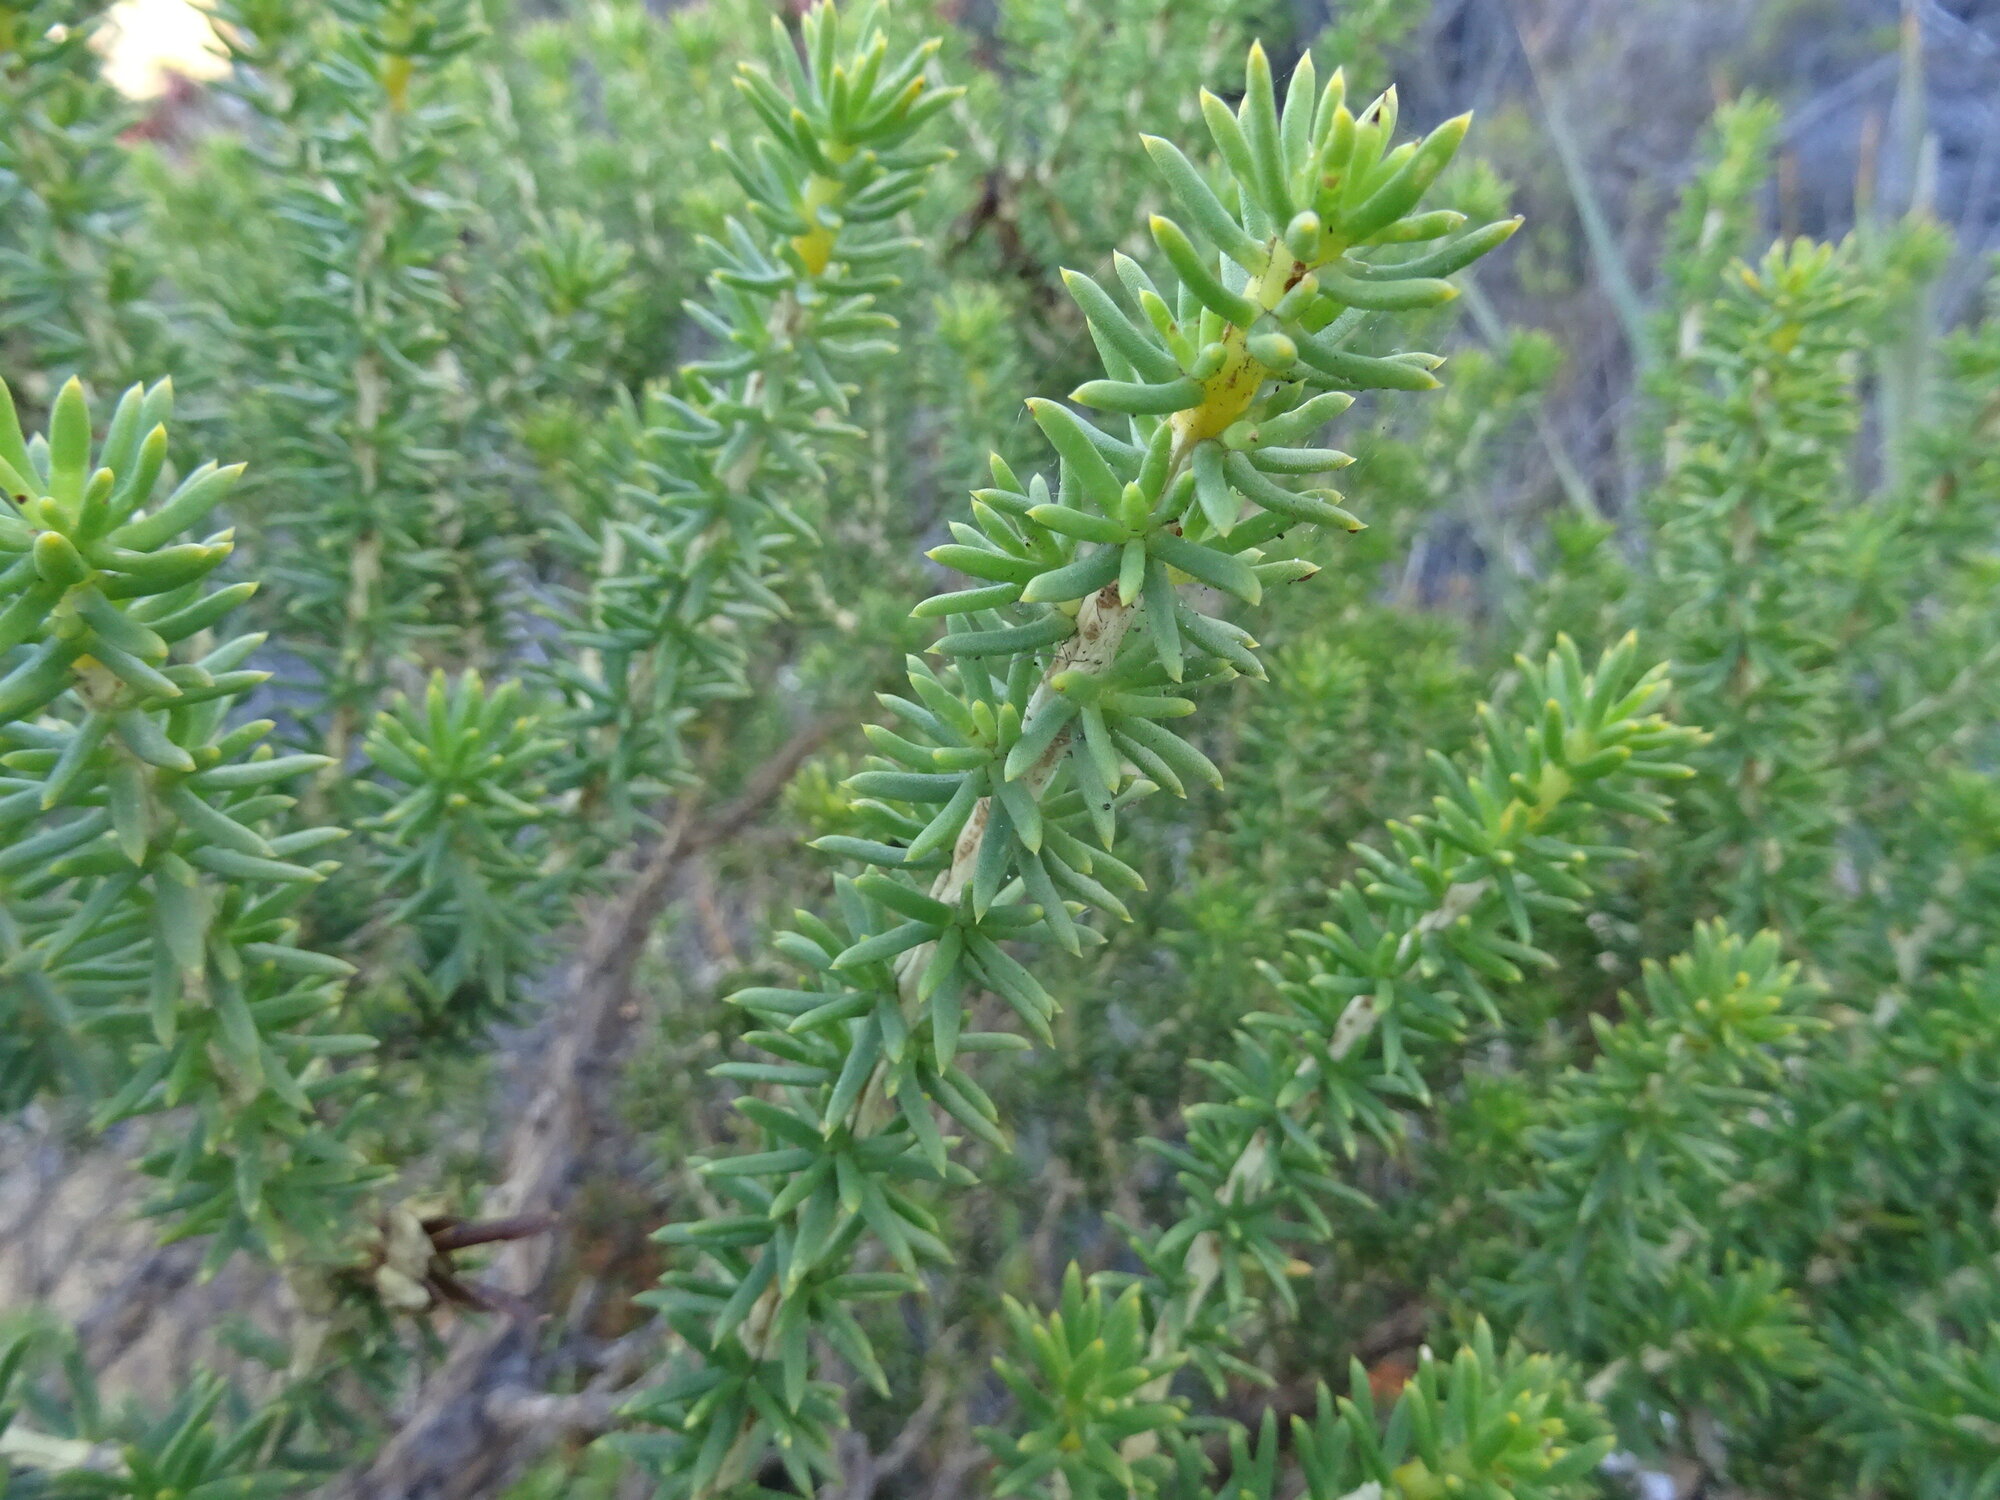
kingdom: Plantae
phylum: Tracheophyta
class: Magnoliopsida
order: Fabales
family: Fabaceae
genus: Aspalathus
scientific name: Aspalathus capensis
